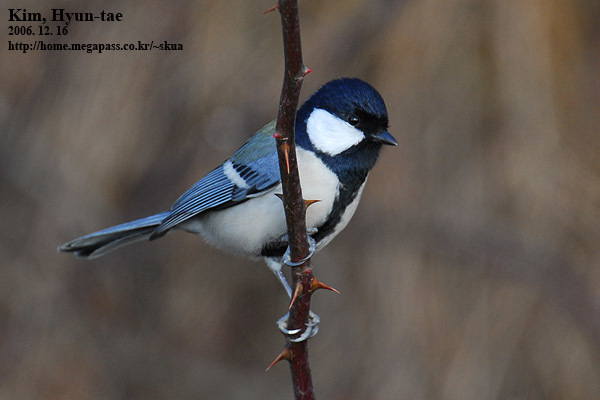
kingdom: Animalia
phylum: Chordata
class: Aves
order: Passeriformes
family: Paridae
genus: Parus
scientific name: Parus minor
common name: Japanese tit
